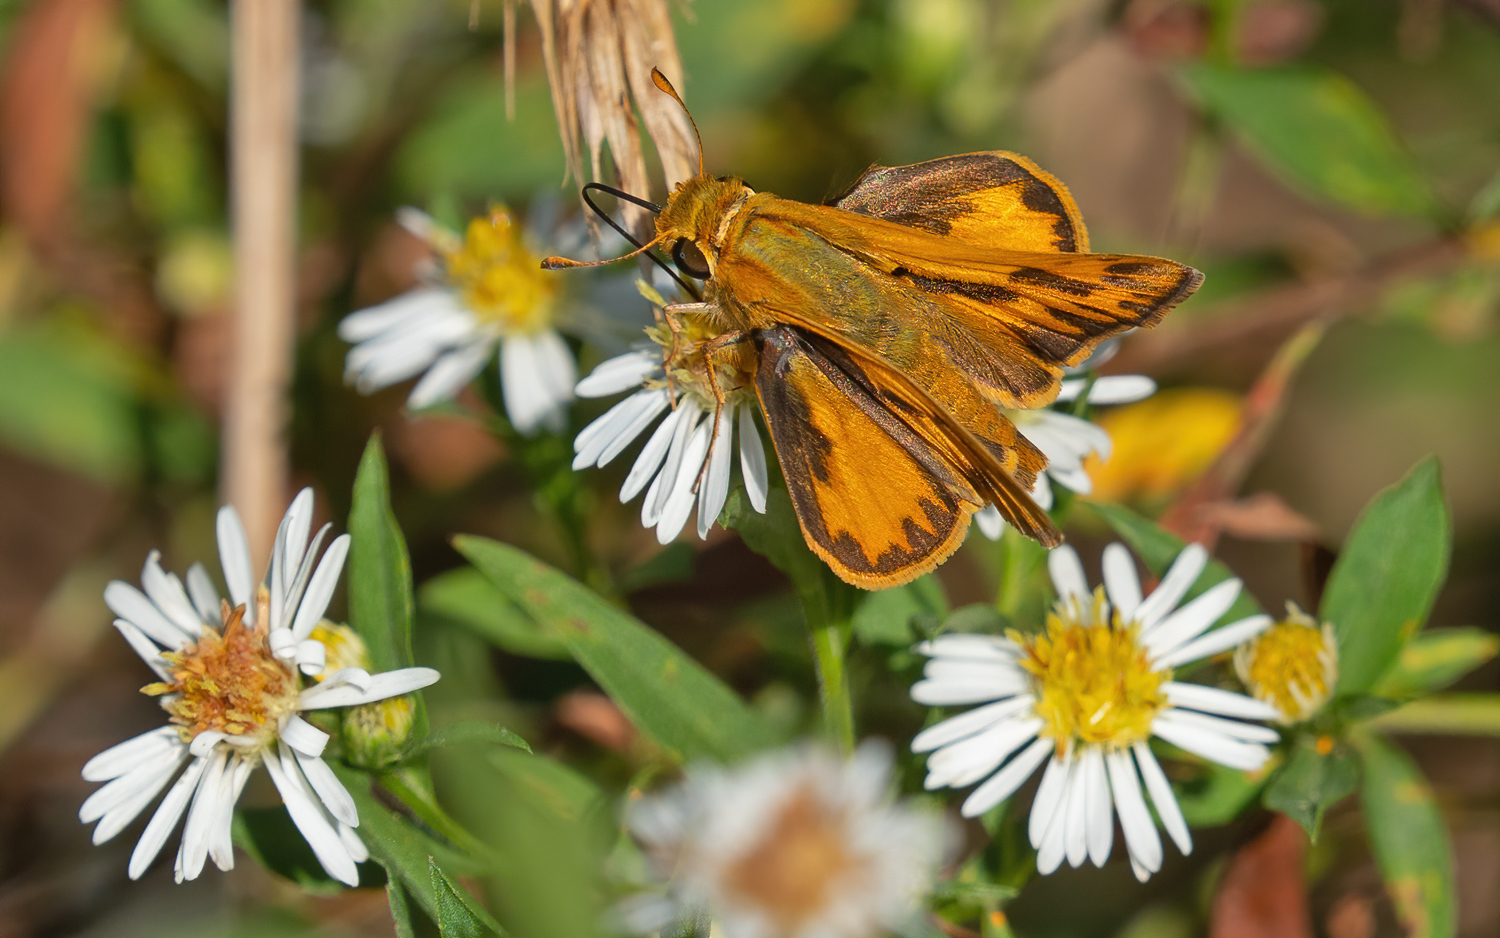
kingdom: Animalia
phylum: Arthropoda
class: Insecta
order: Lepidoptera
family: Hesperiidae
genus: Hylephila
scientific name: Hylephila phyleus
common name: Fiery skipper
